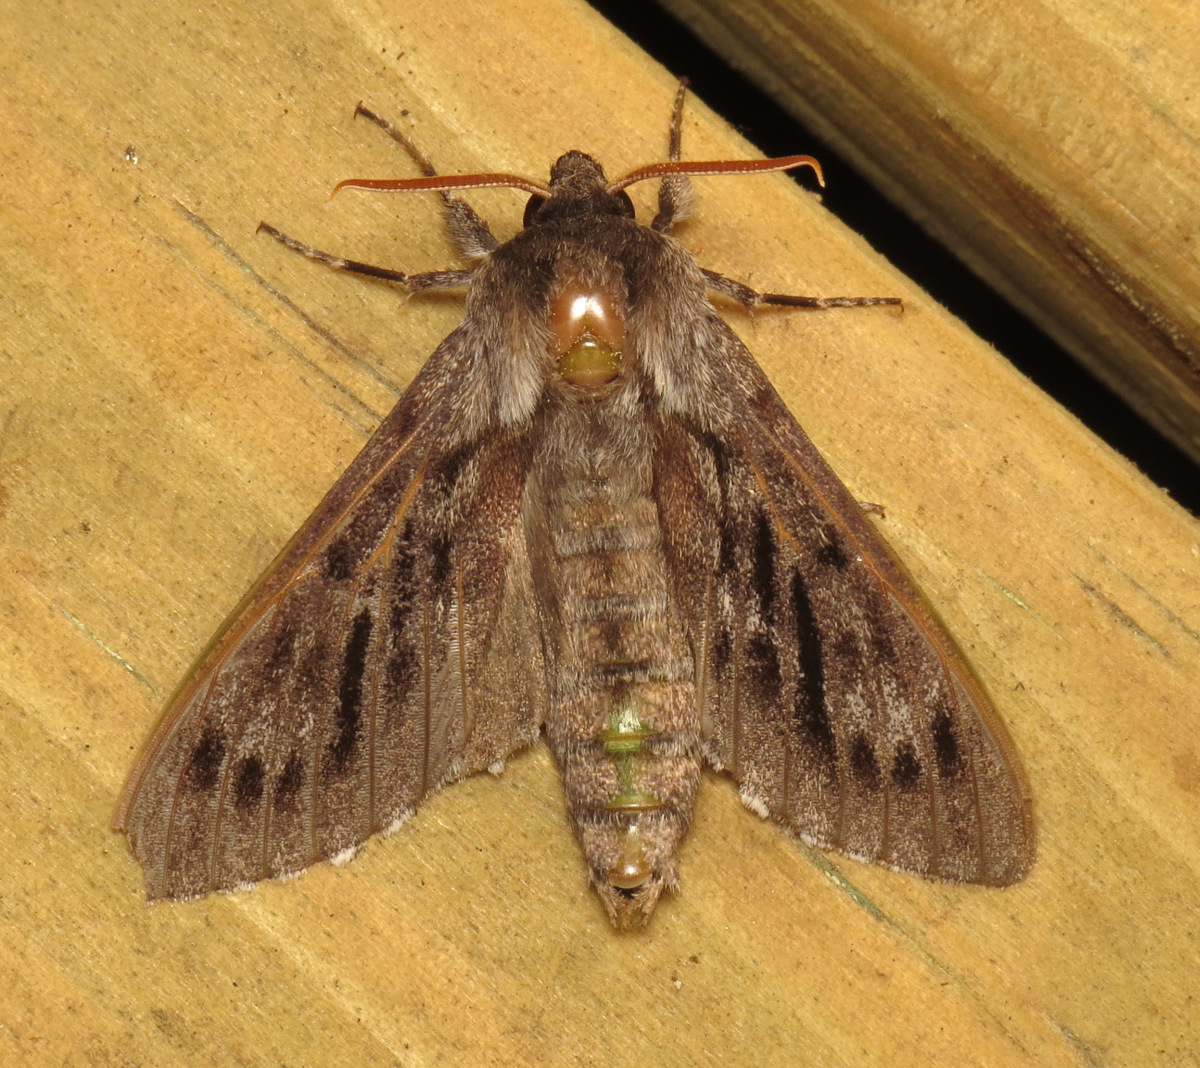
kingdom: Animalia
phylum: Arthropoda
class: Insecta
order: Lepidoptera
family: Sphingidae
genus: Lapara
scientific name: Lapara bombycoides
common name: Northern pine sphinx
